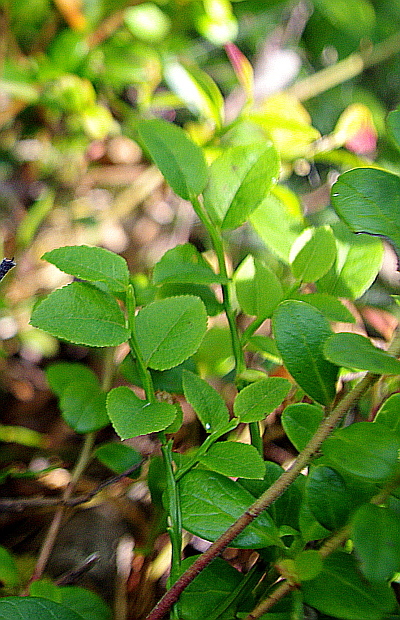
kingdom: Plantae
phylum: Tracheophyta
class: Magnoliopsida
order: Ericales
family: Ericaceae
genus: Vaccinium
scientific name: Vaccinium myrtillus
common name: Bilberry
